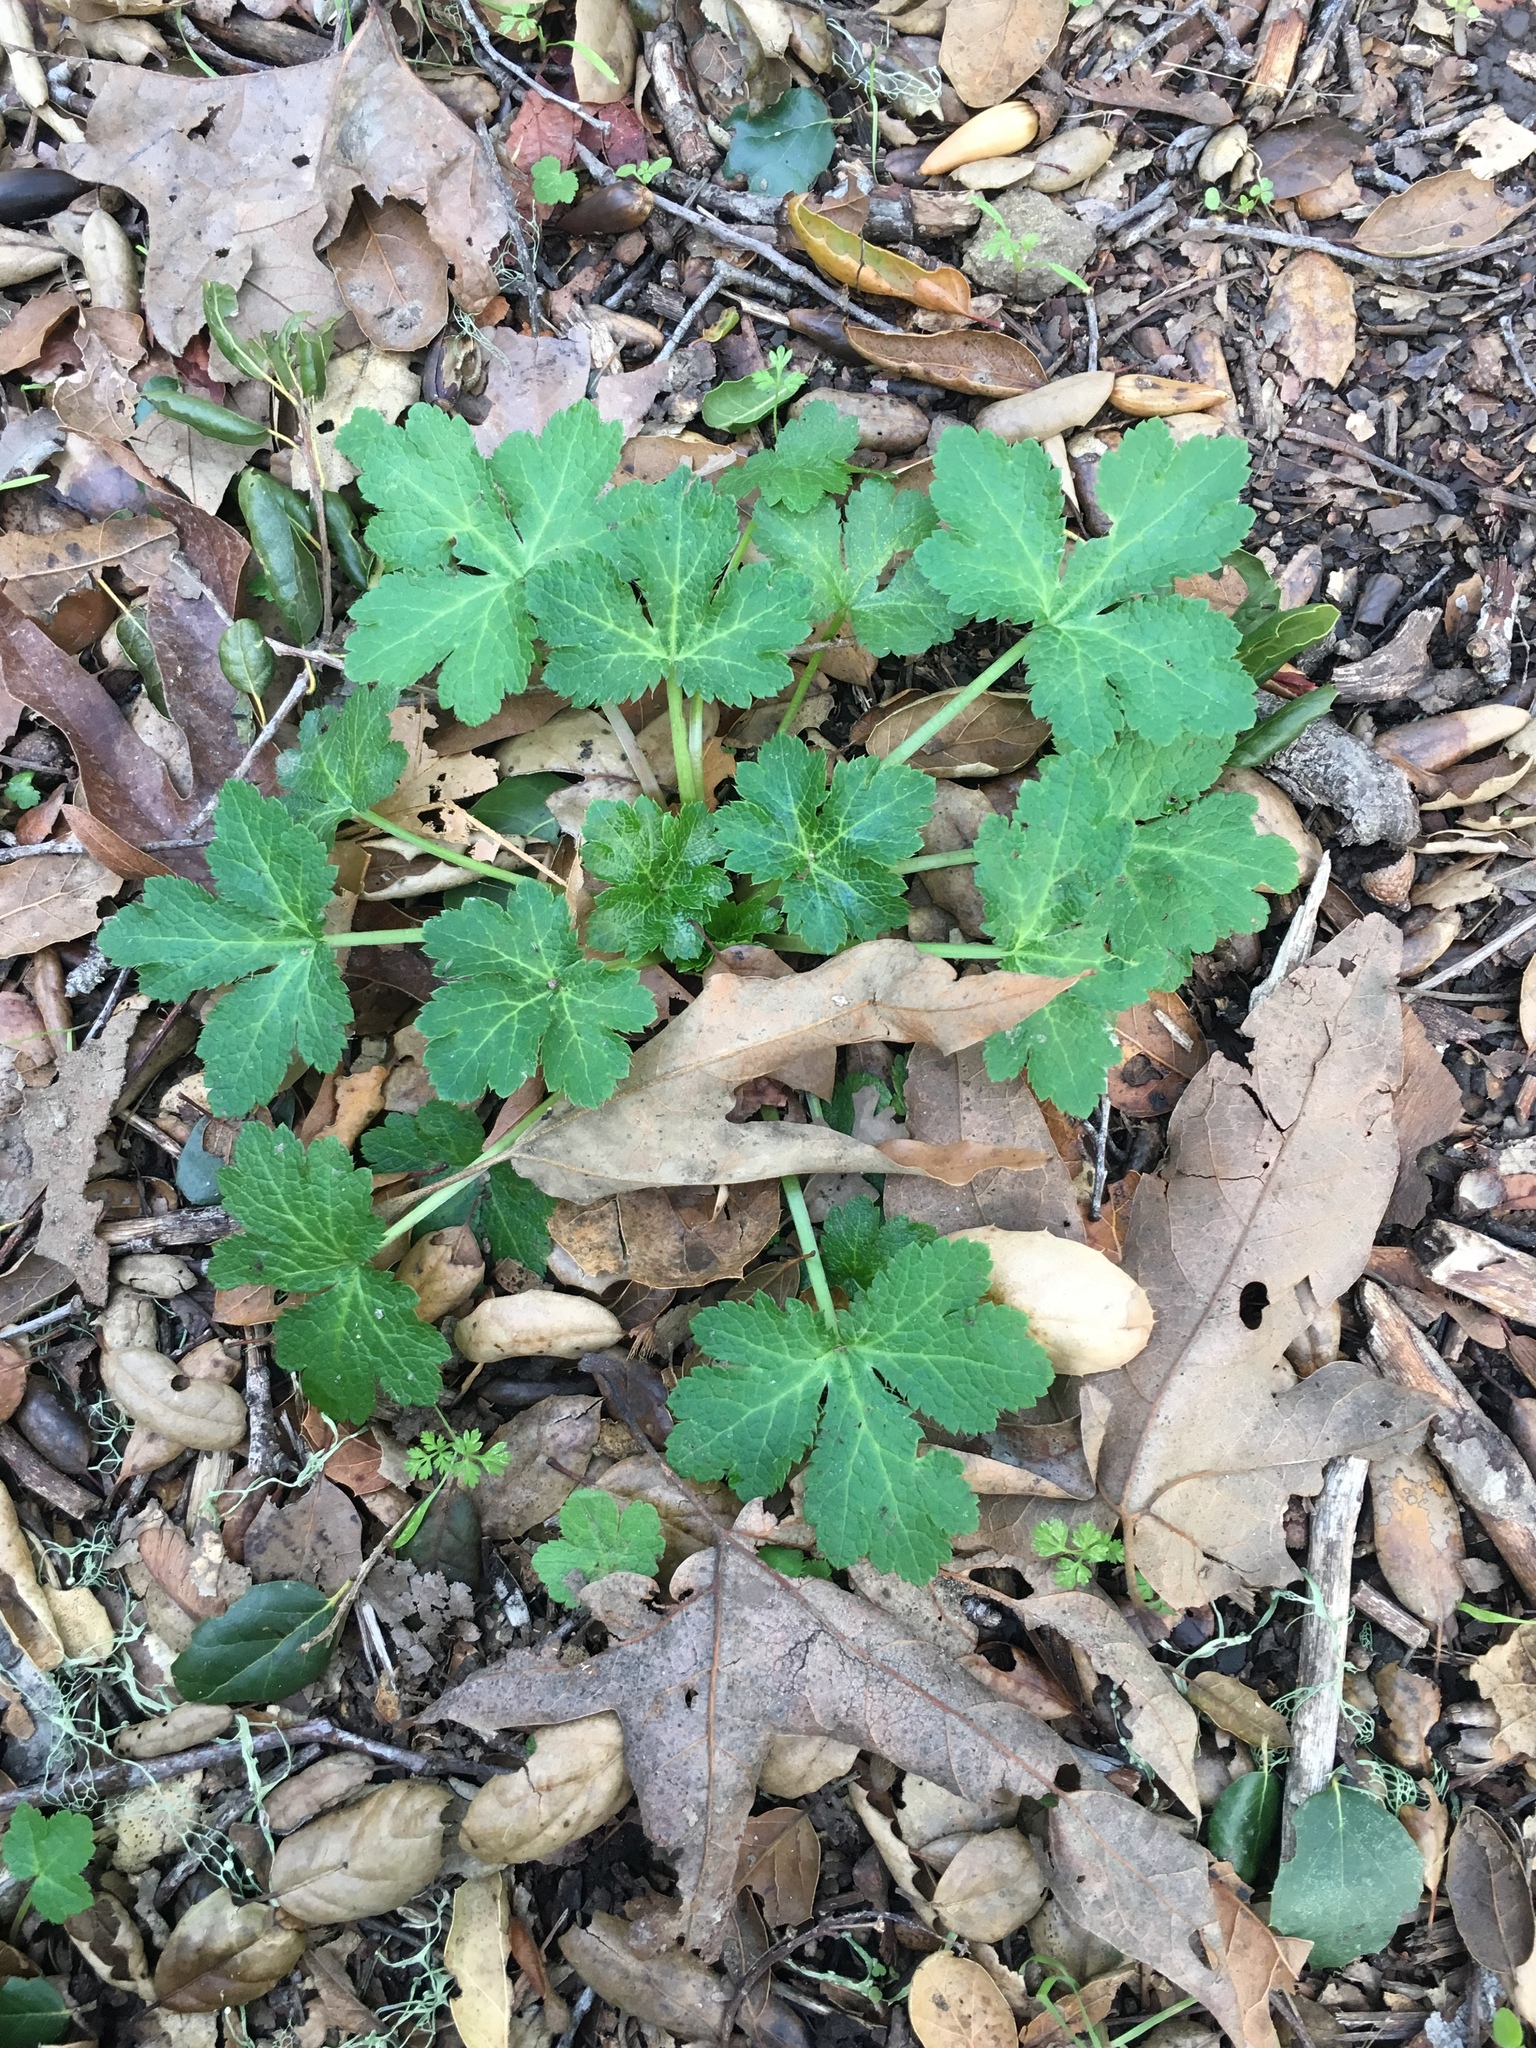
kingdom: Plantae
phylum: Tracheophyta
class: Magnoliopsida
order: Apiales
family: Apiaceae
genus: Sanicula
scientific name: Sanicula crassicaulis
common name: Western snakeroot
